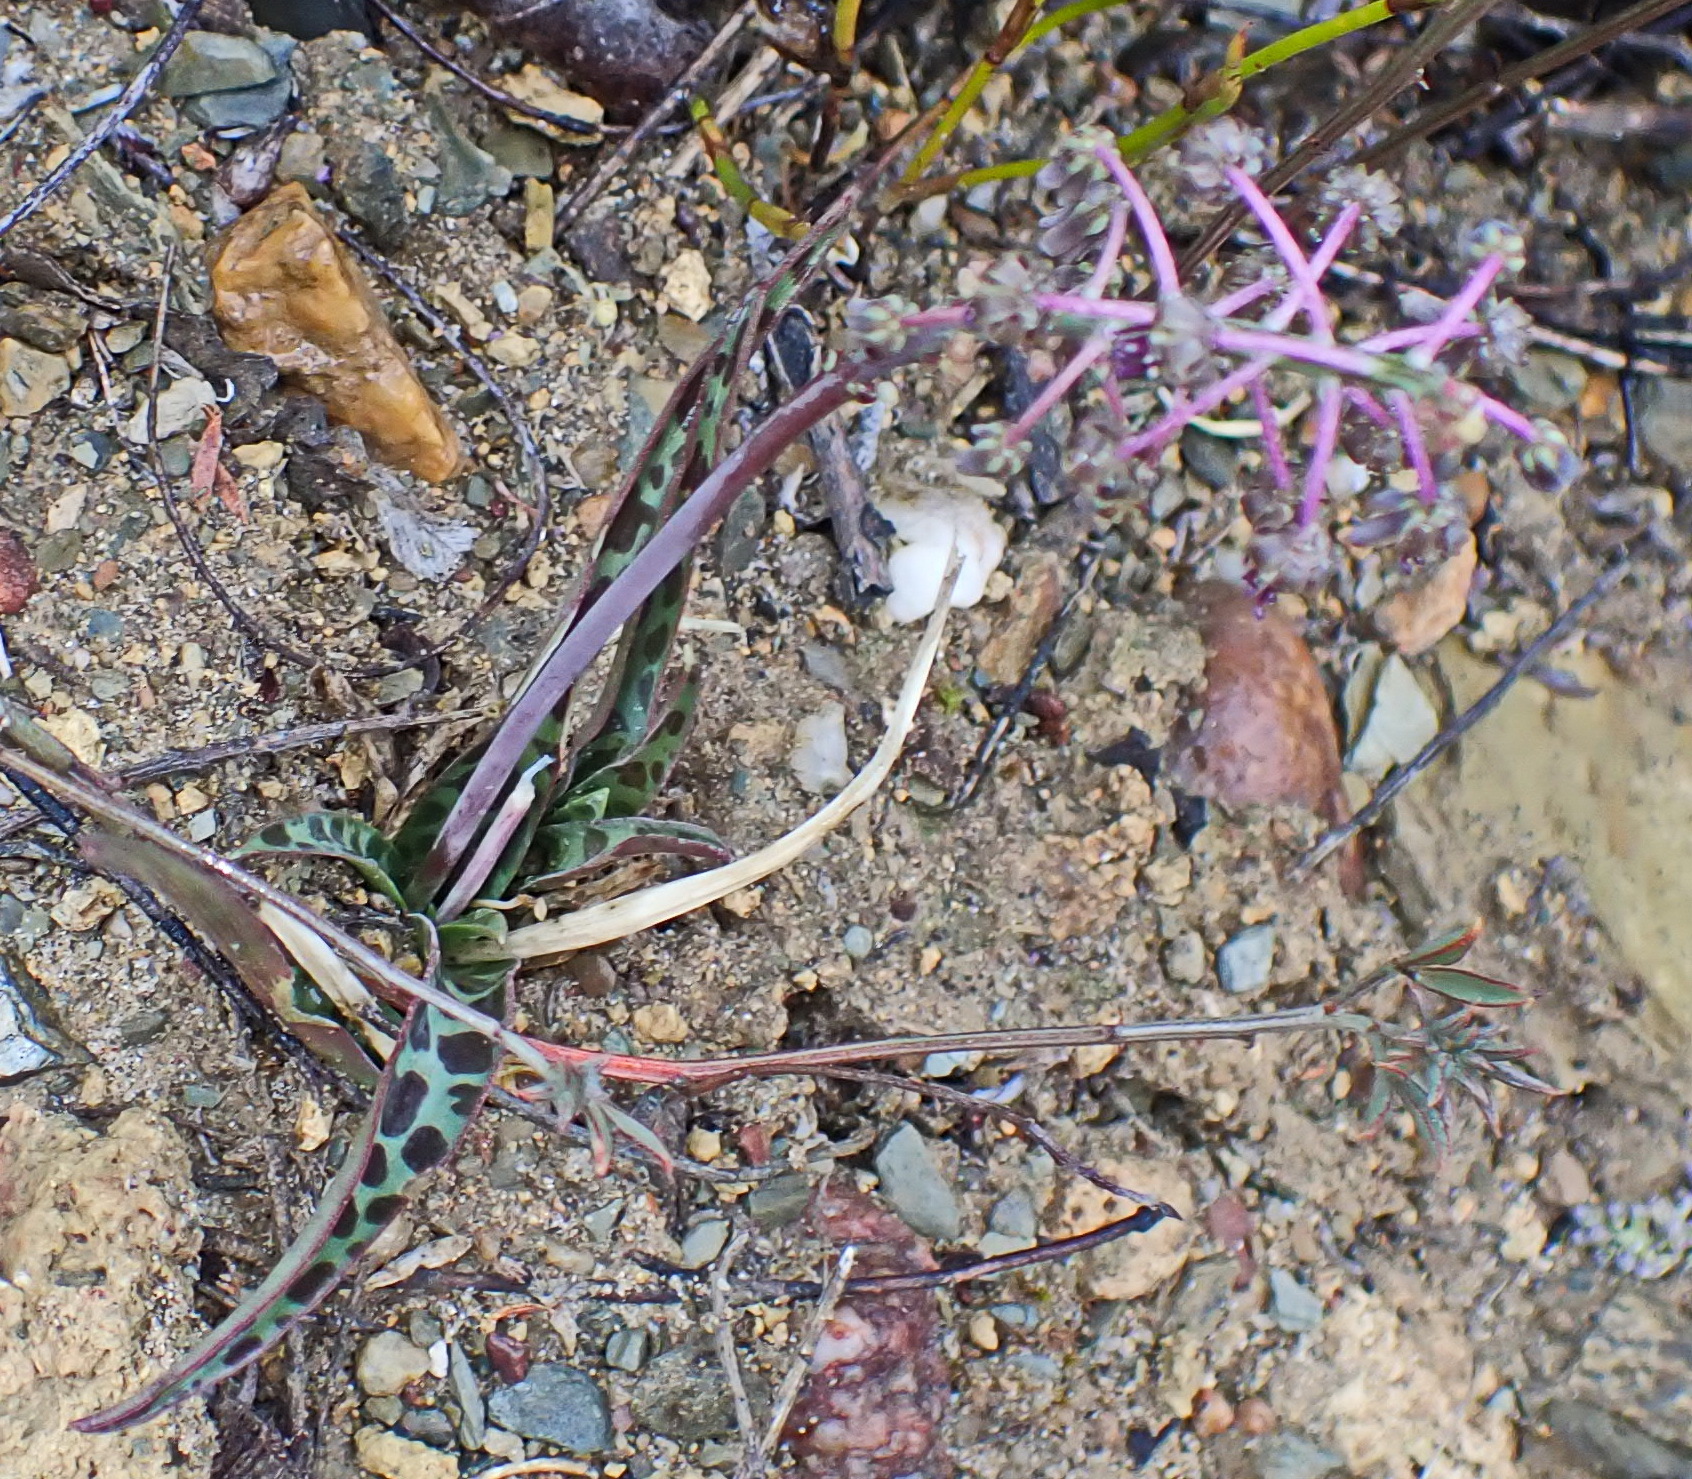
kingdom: Plantae
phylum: Tracheophyta
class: Liliopsida
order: Asparagales
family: Asparagaceae
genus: Ledebouria
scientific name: Ledebouria ovalifolia
